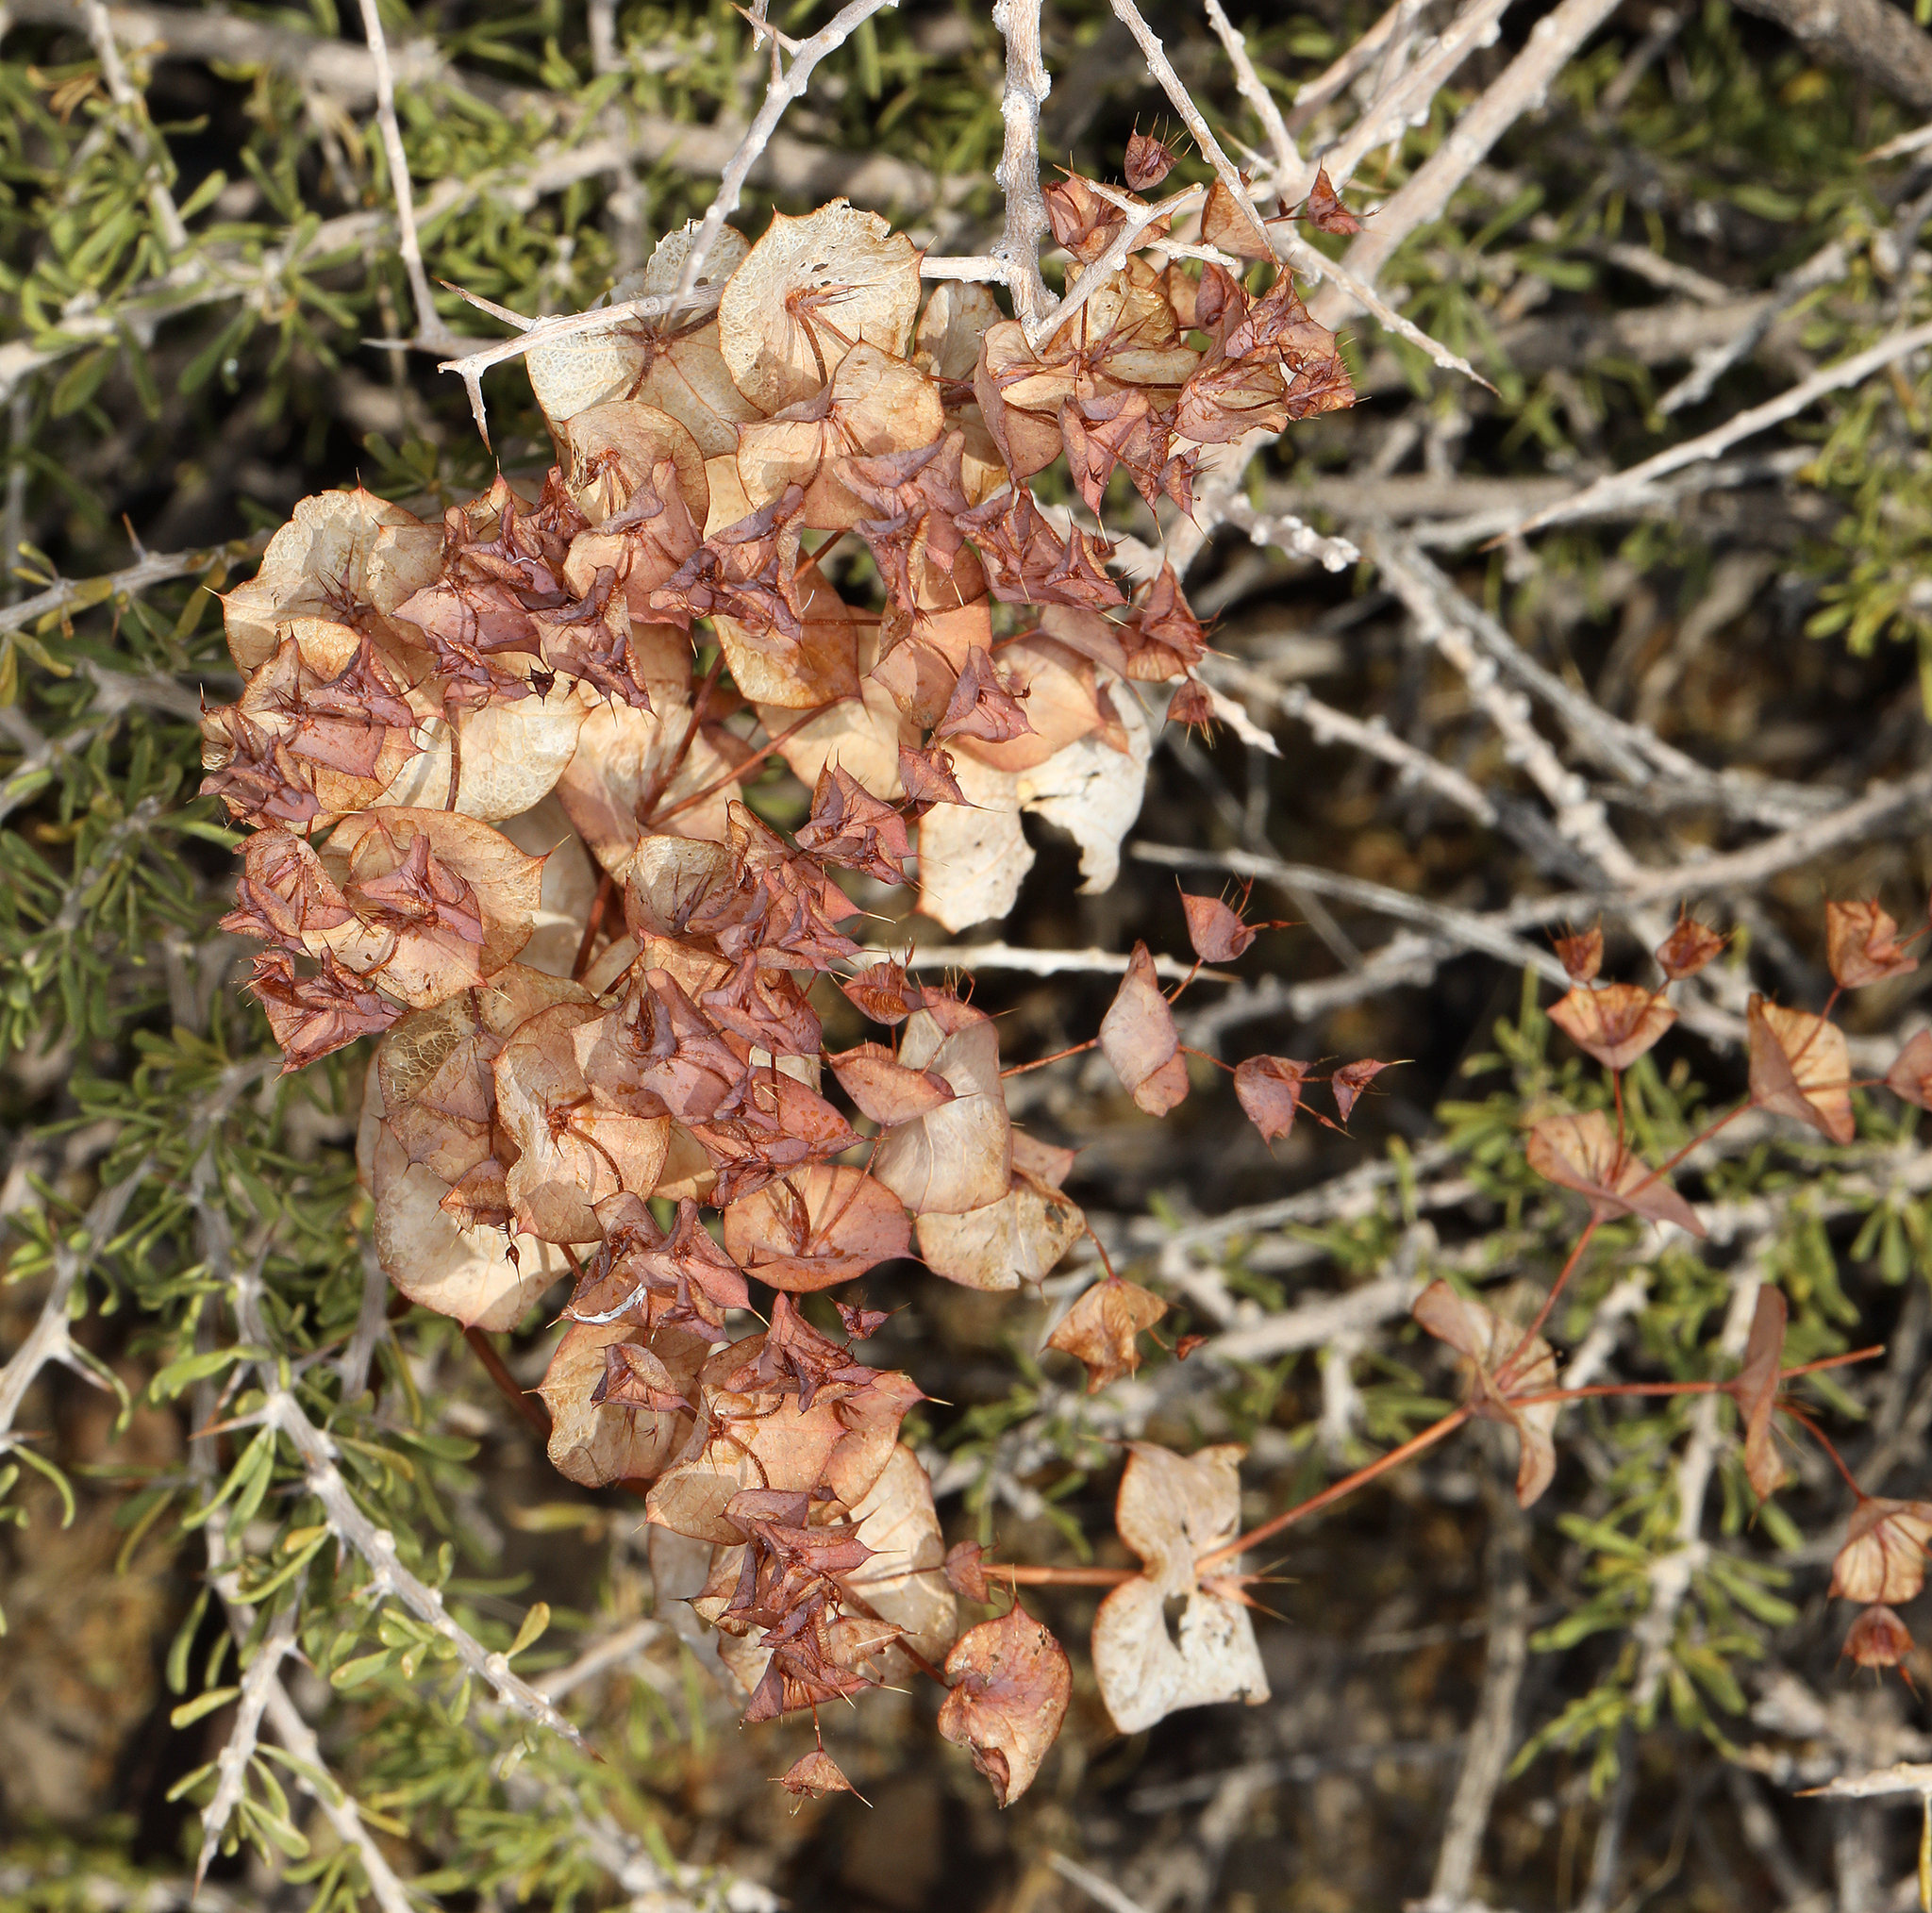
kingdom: Plantae
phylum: Tracheophyta
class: Magnoliopsida
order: Caryophyllales
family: Polygonaceae
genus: Oxytheca
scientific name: Oxytheca perfoliata
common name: Round-leaf puncturebract
